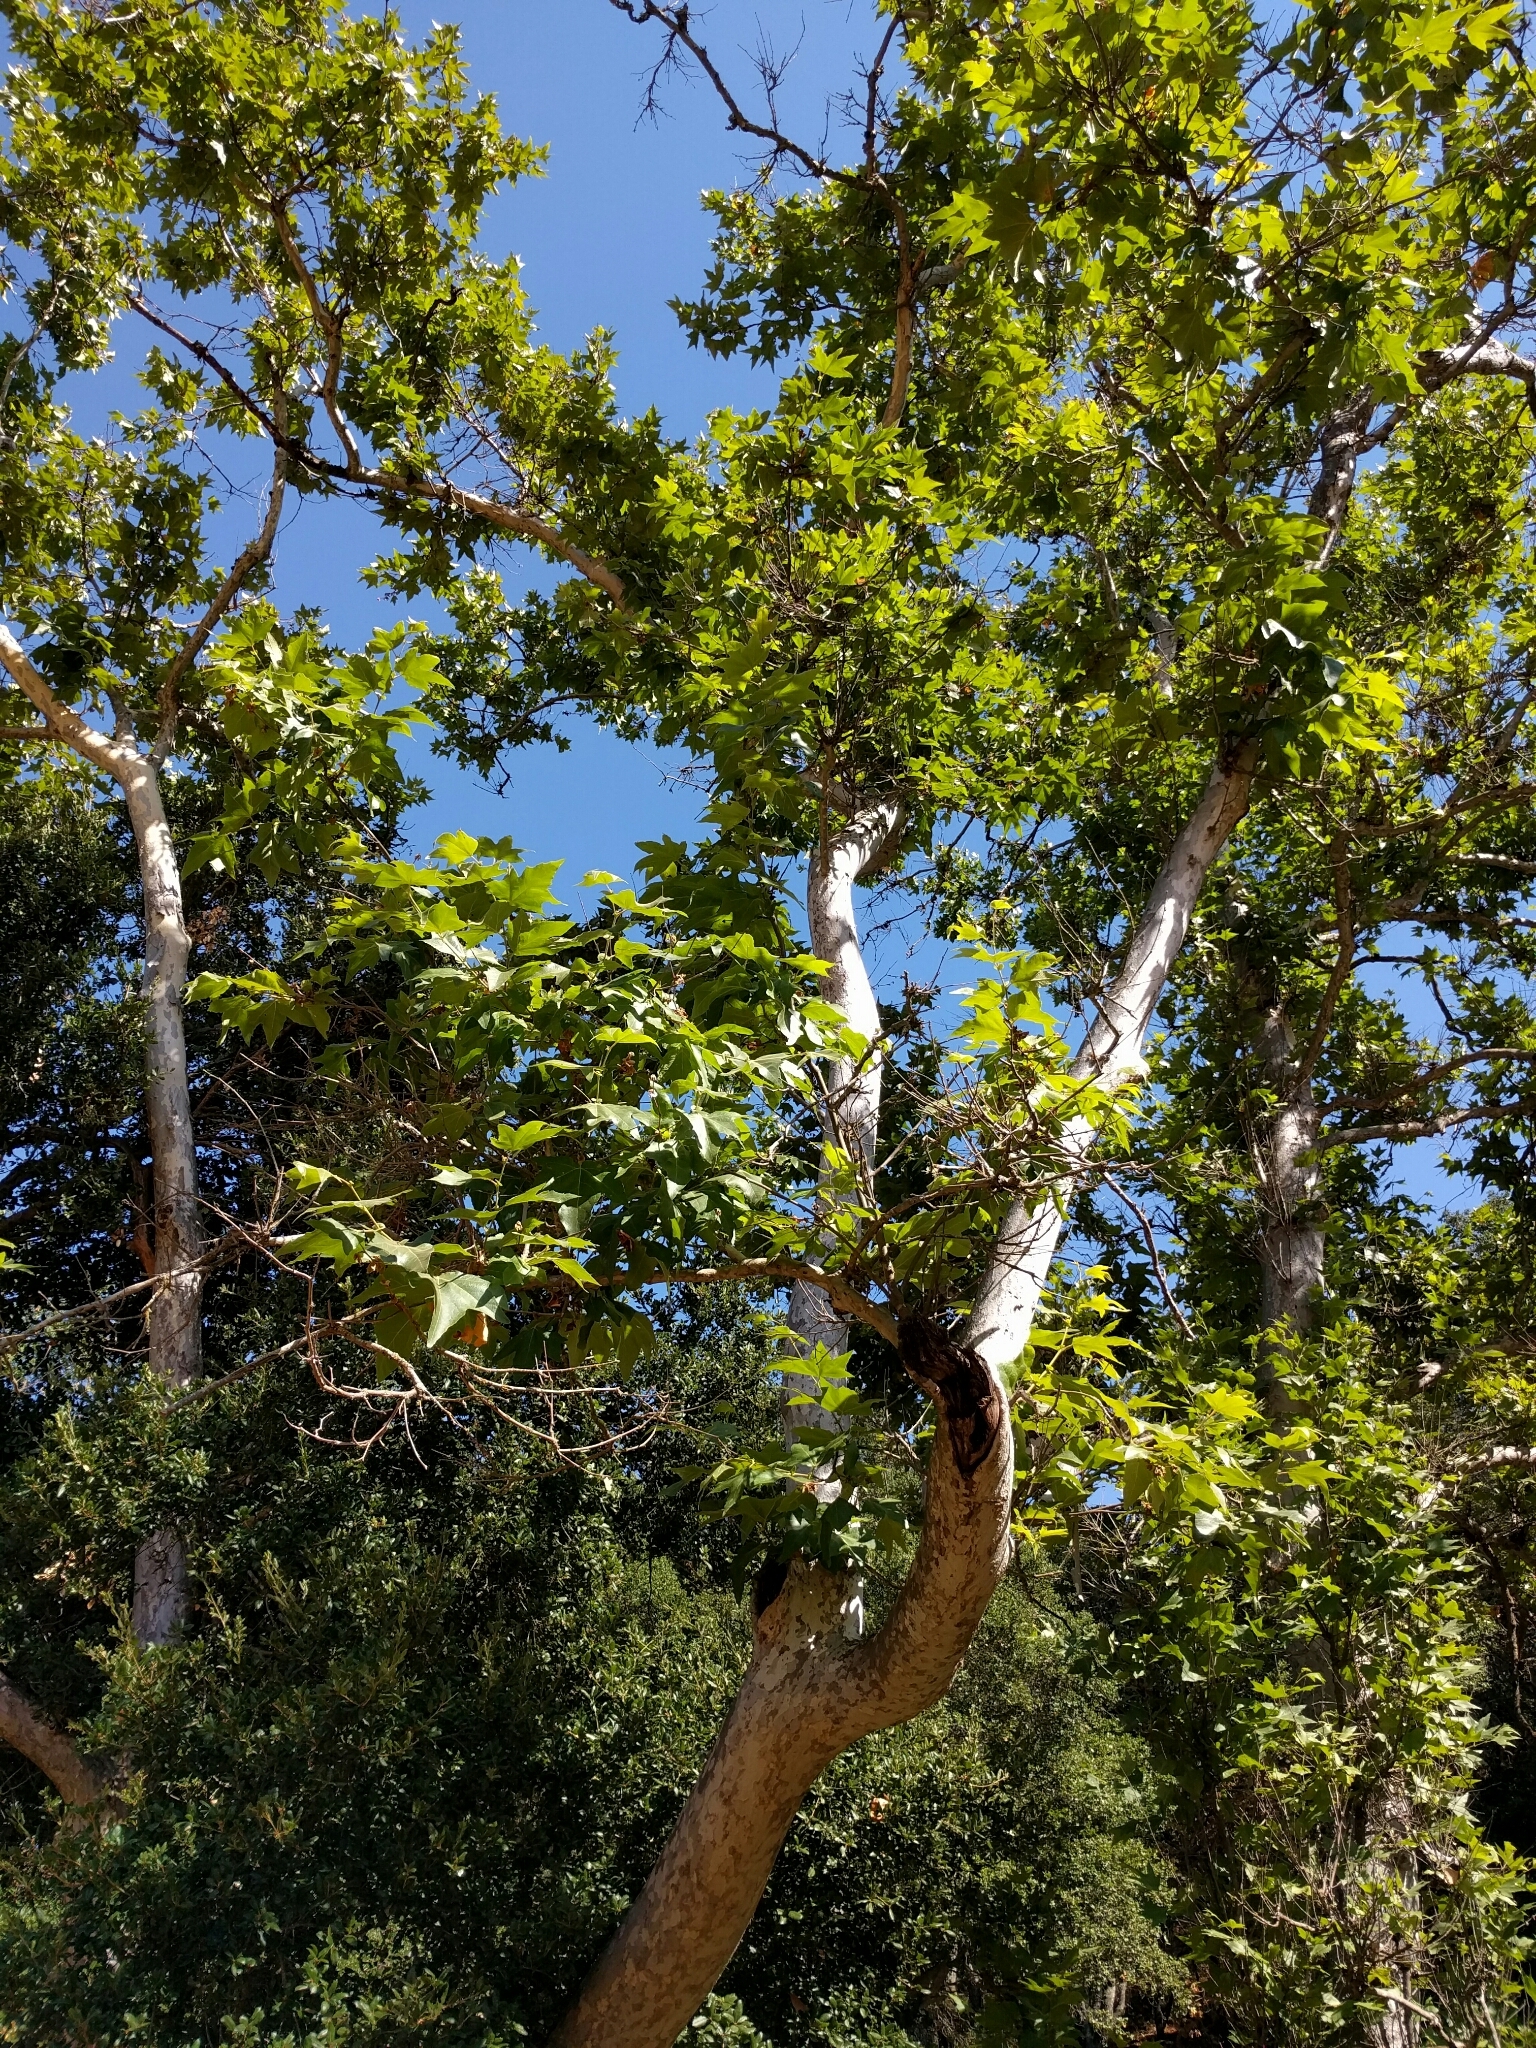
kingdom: Plantae
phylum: Tracheophyta
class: Magnoliopsida
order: Proteales
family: Platanaceae
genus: Platanus
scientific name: Platanus racemosa
